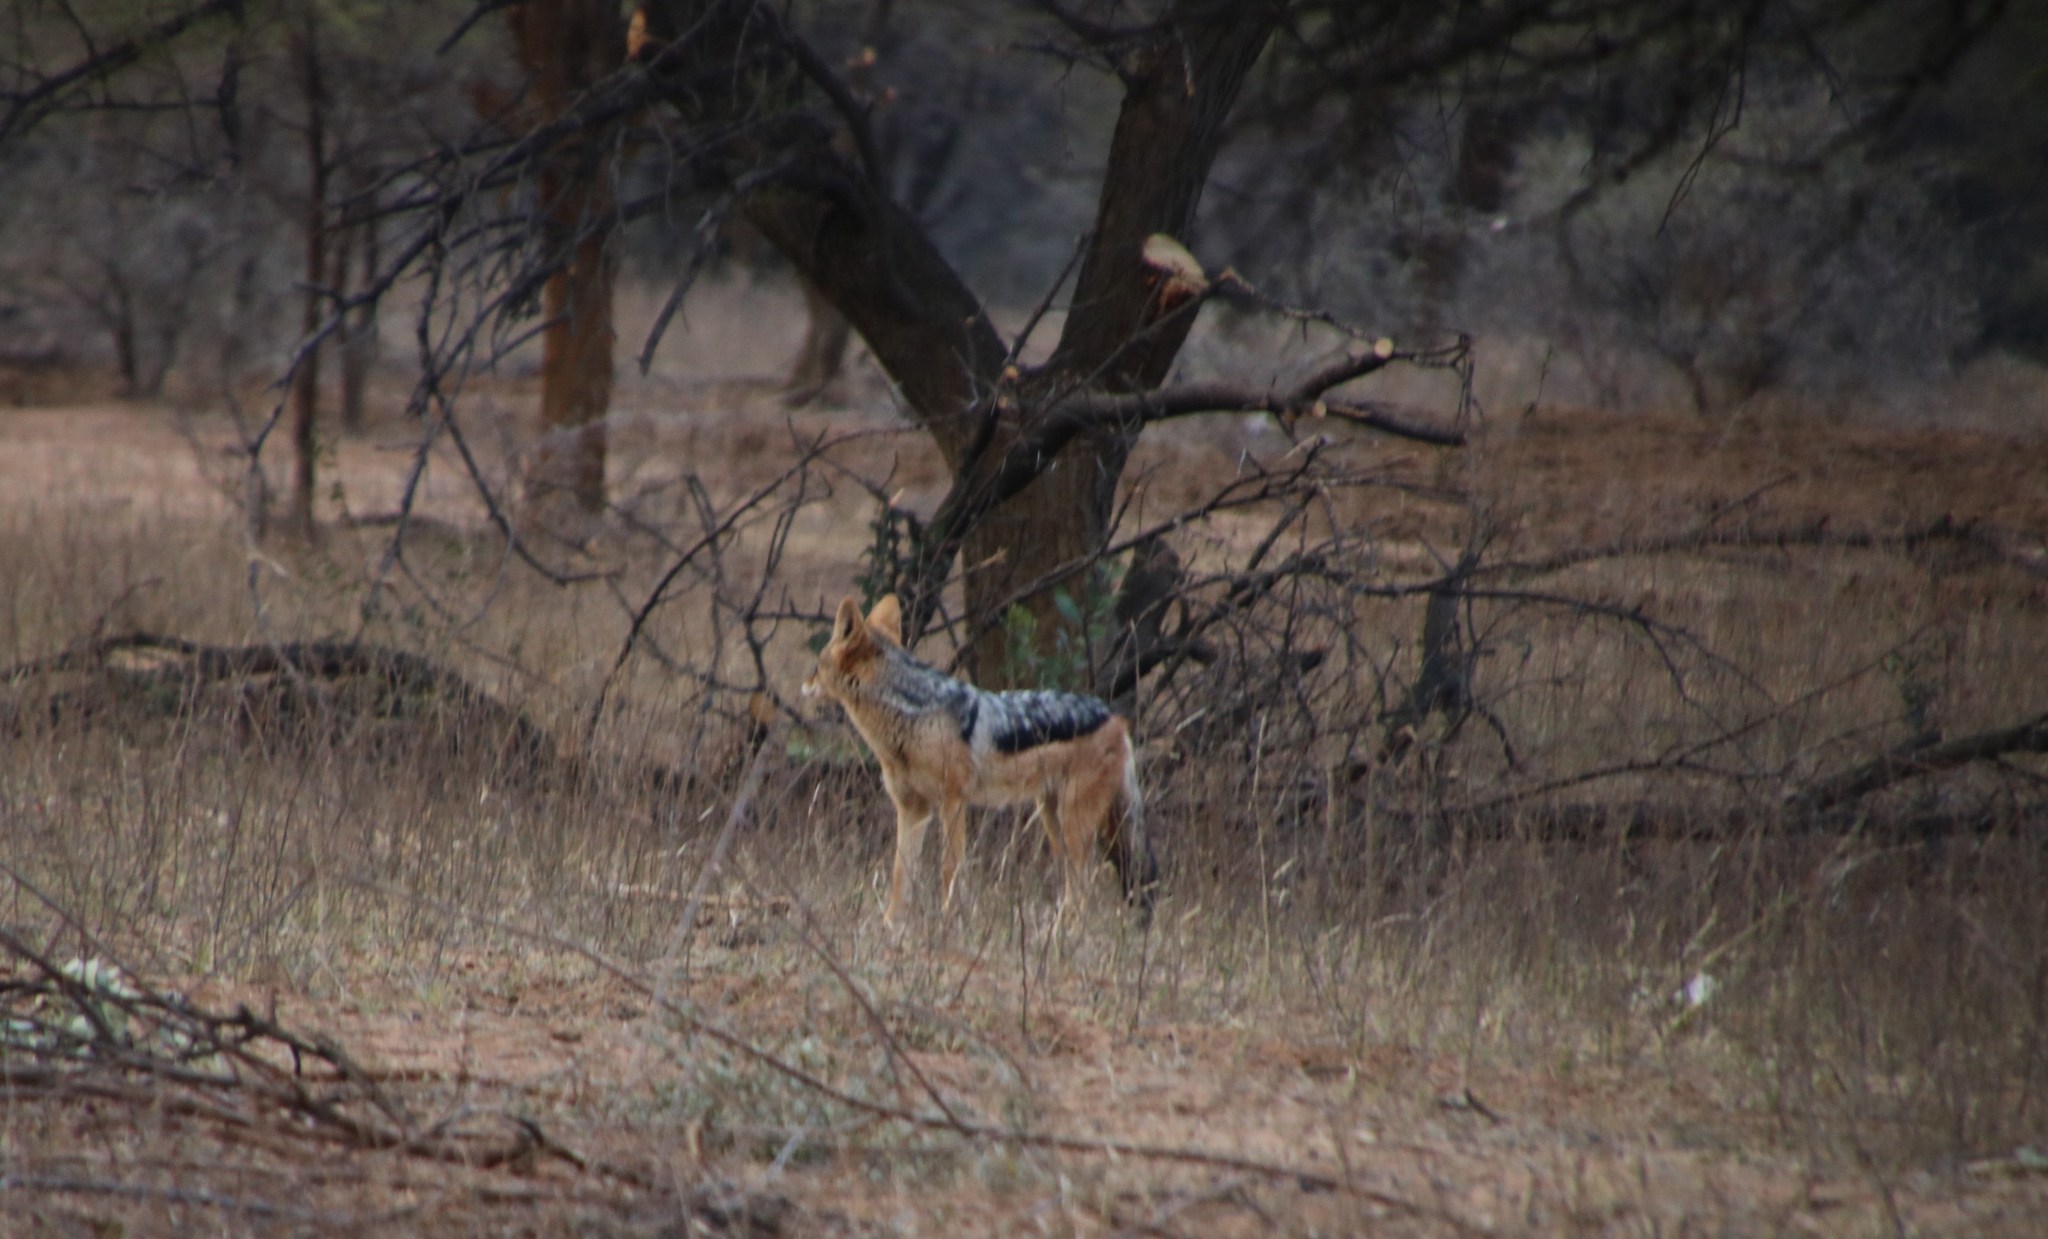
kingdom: Animalia
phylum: Chordata
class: Mammalia
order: Carnivora
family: Canidae
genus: Lupulella
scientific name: Lupulella
